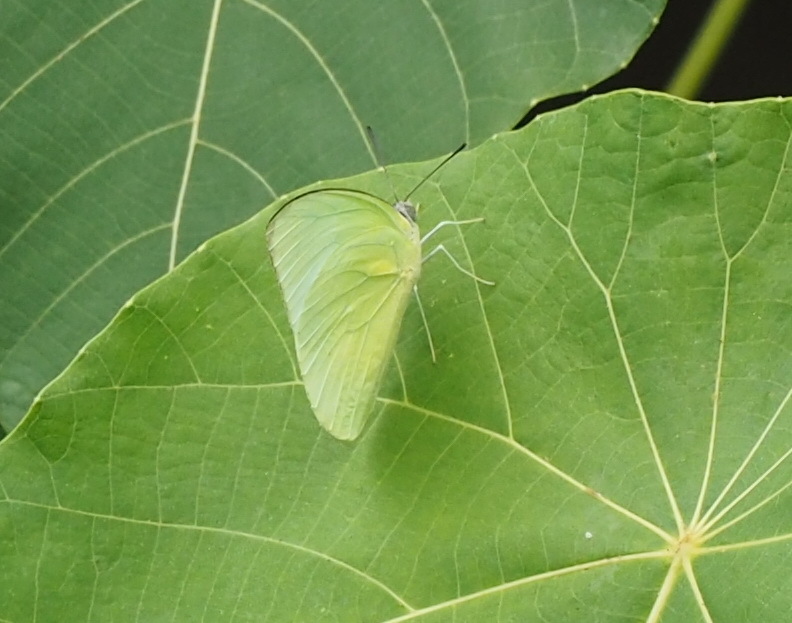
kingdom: Animalia
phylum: Arthropoda
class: Insecta
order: Lepidoptera
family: Pieridae
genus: Catopsilia
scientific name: Catopsilia pomona
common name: Common emigrant
